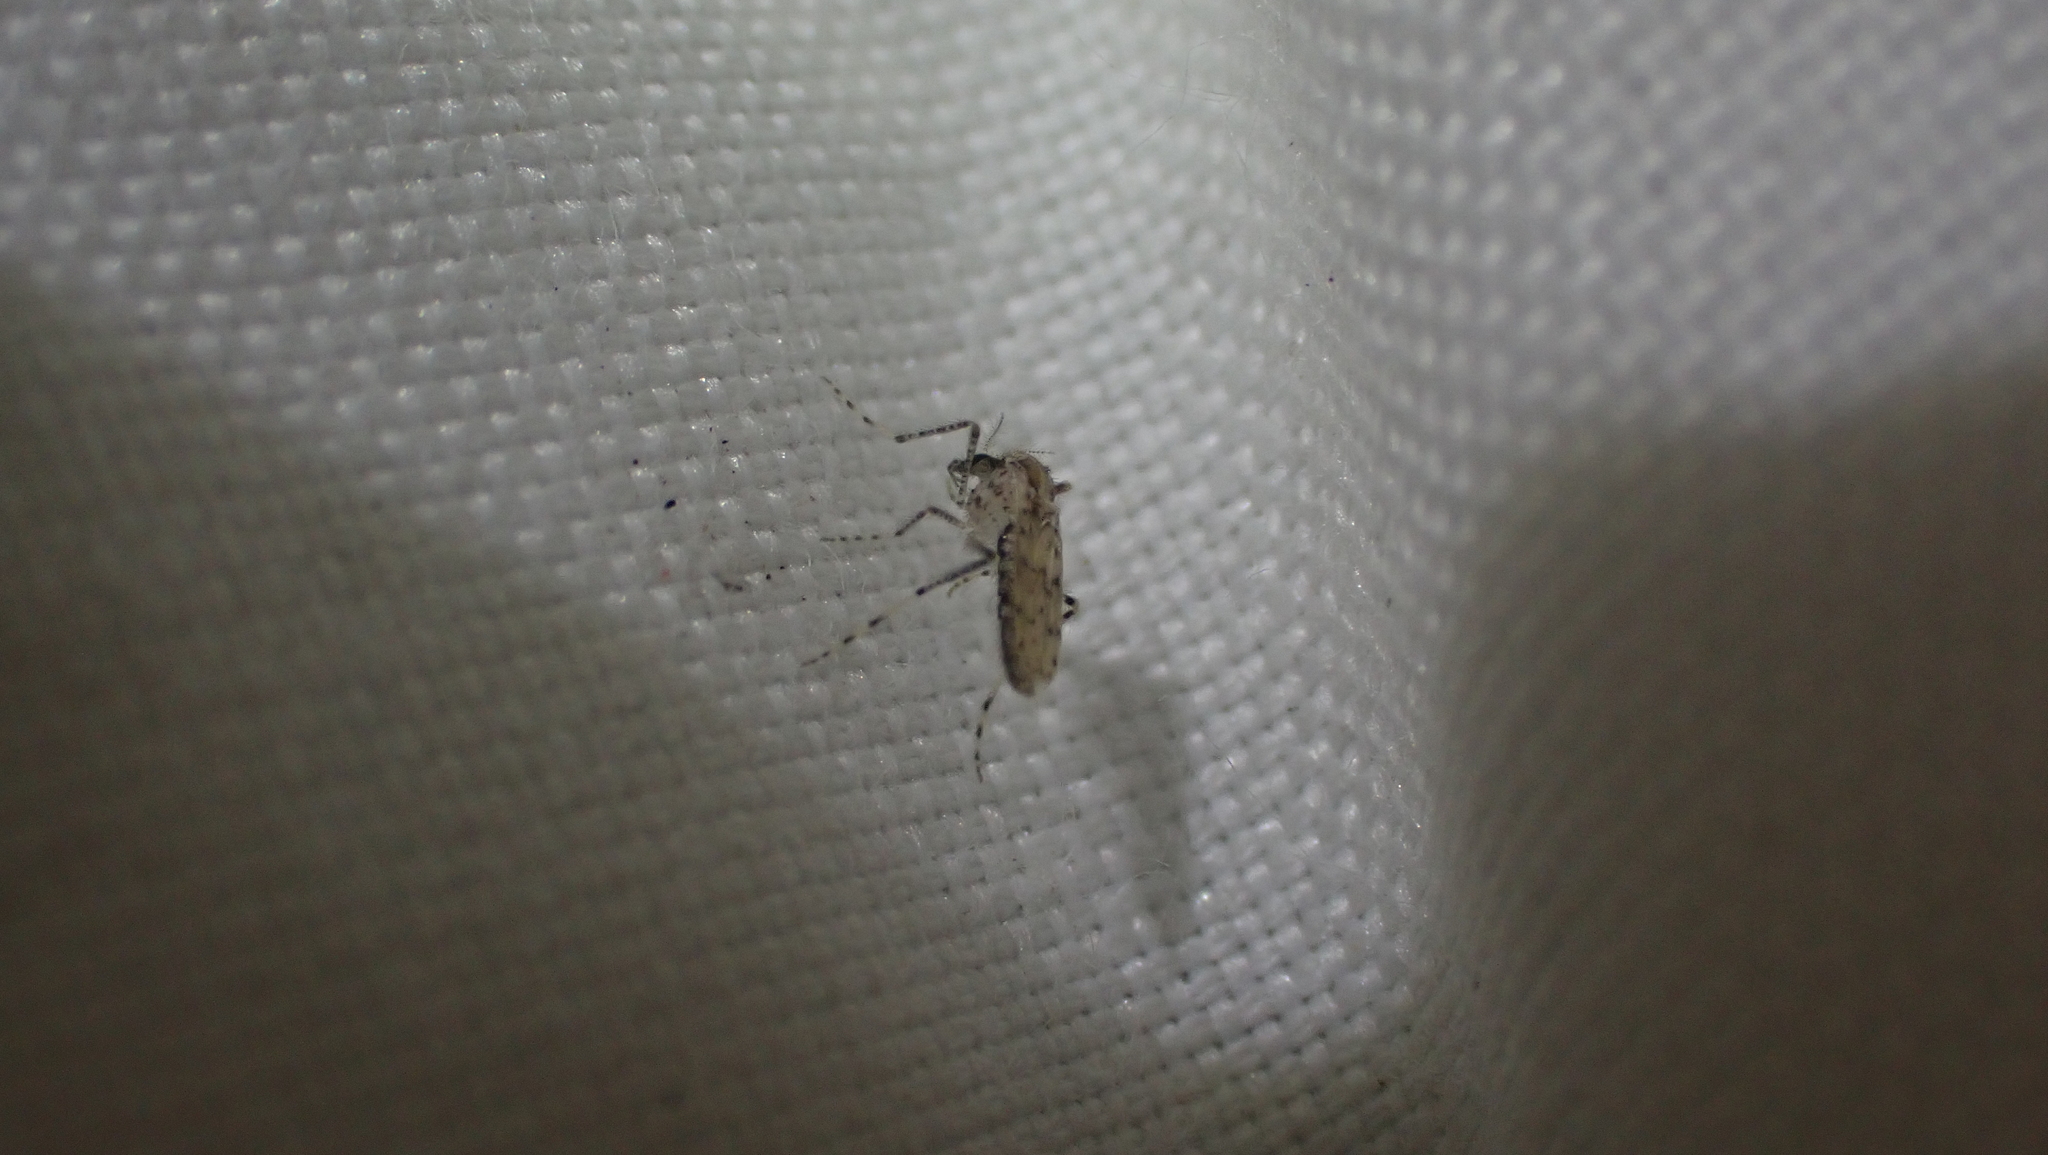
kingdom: Animalia
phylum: Arthropoda
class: Insecta
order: Diptera
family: Chaoboridae
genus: Chaoborus
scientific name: Chaoborus punctipennis
